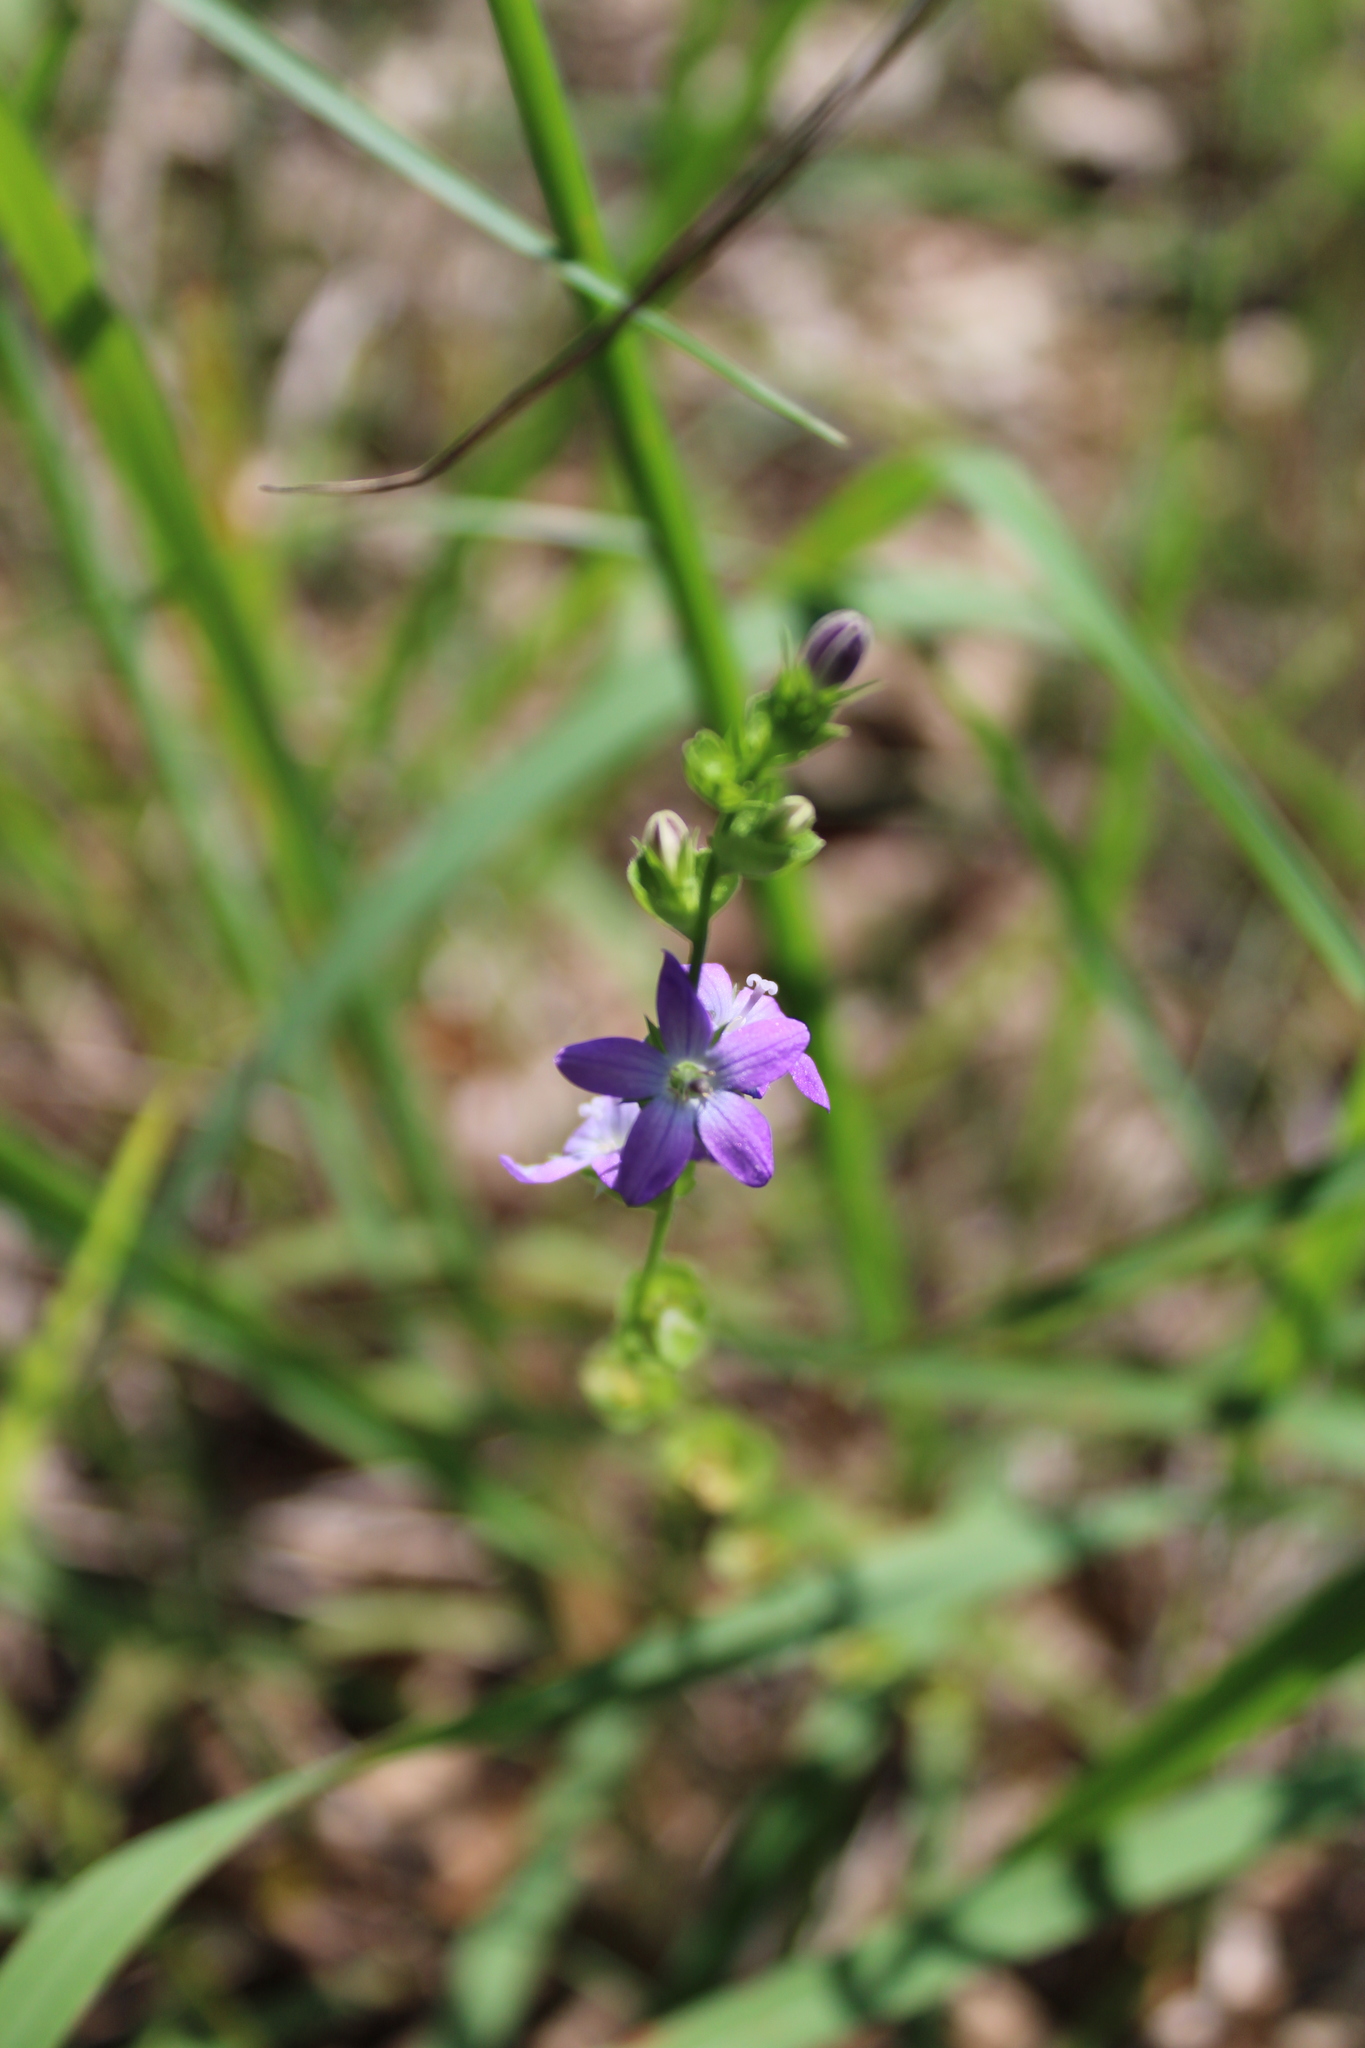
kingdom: Plantae
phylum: Tracheophyta
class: Magnoliopsida
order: Asterales
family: Campanulaceae
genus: Triodanis
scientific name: Triodanis perfoliata
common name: Clasping venus' looking-glass
